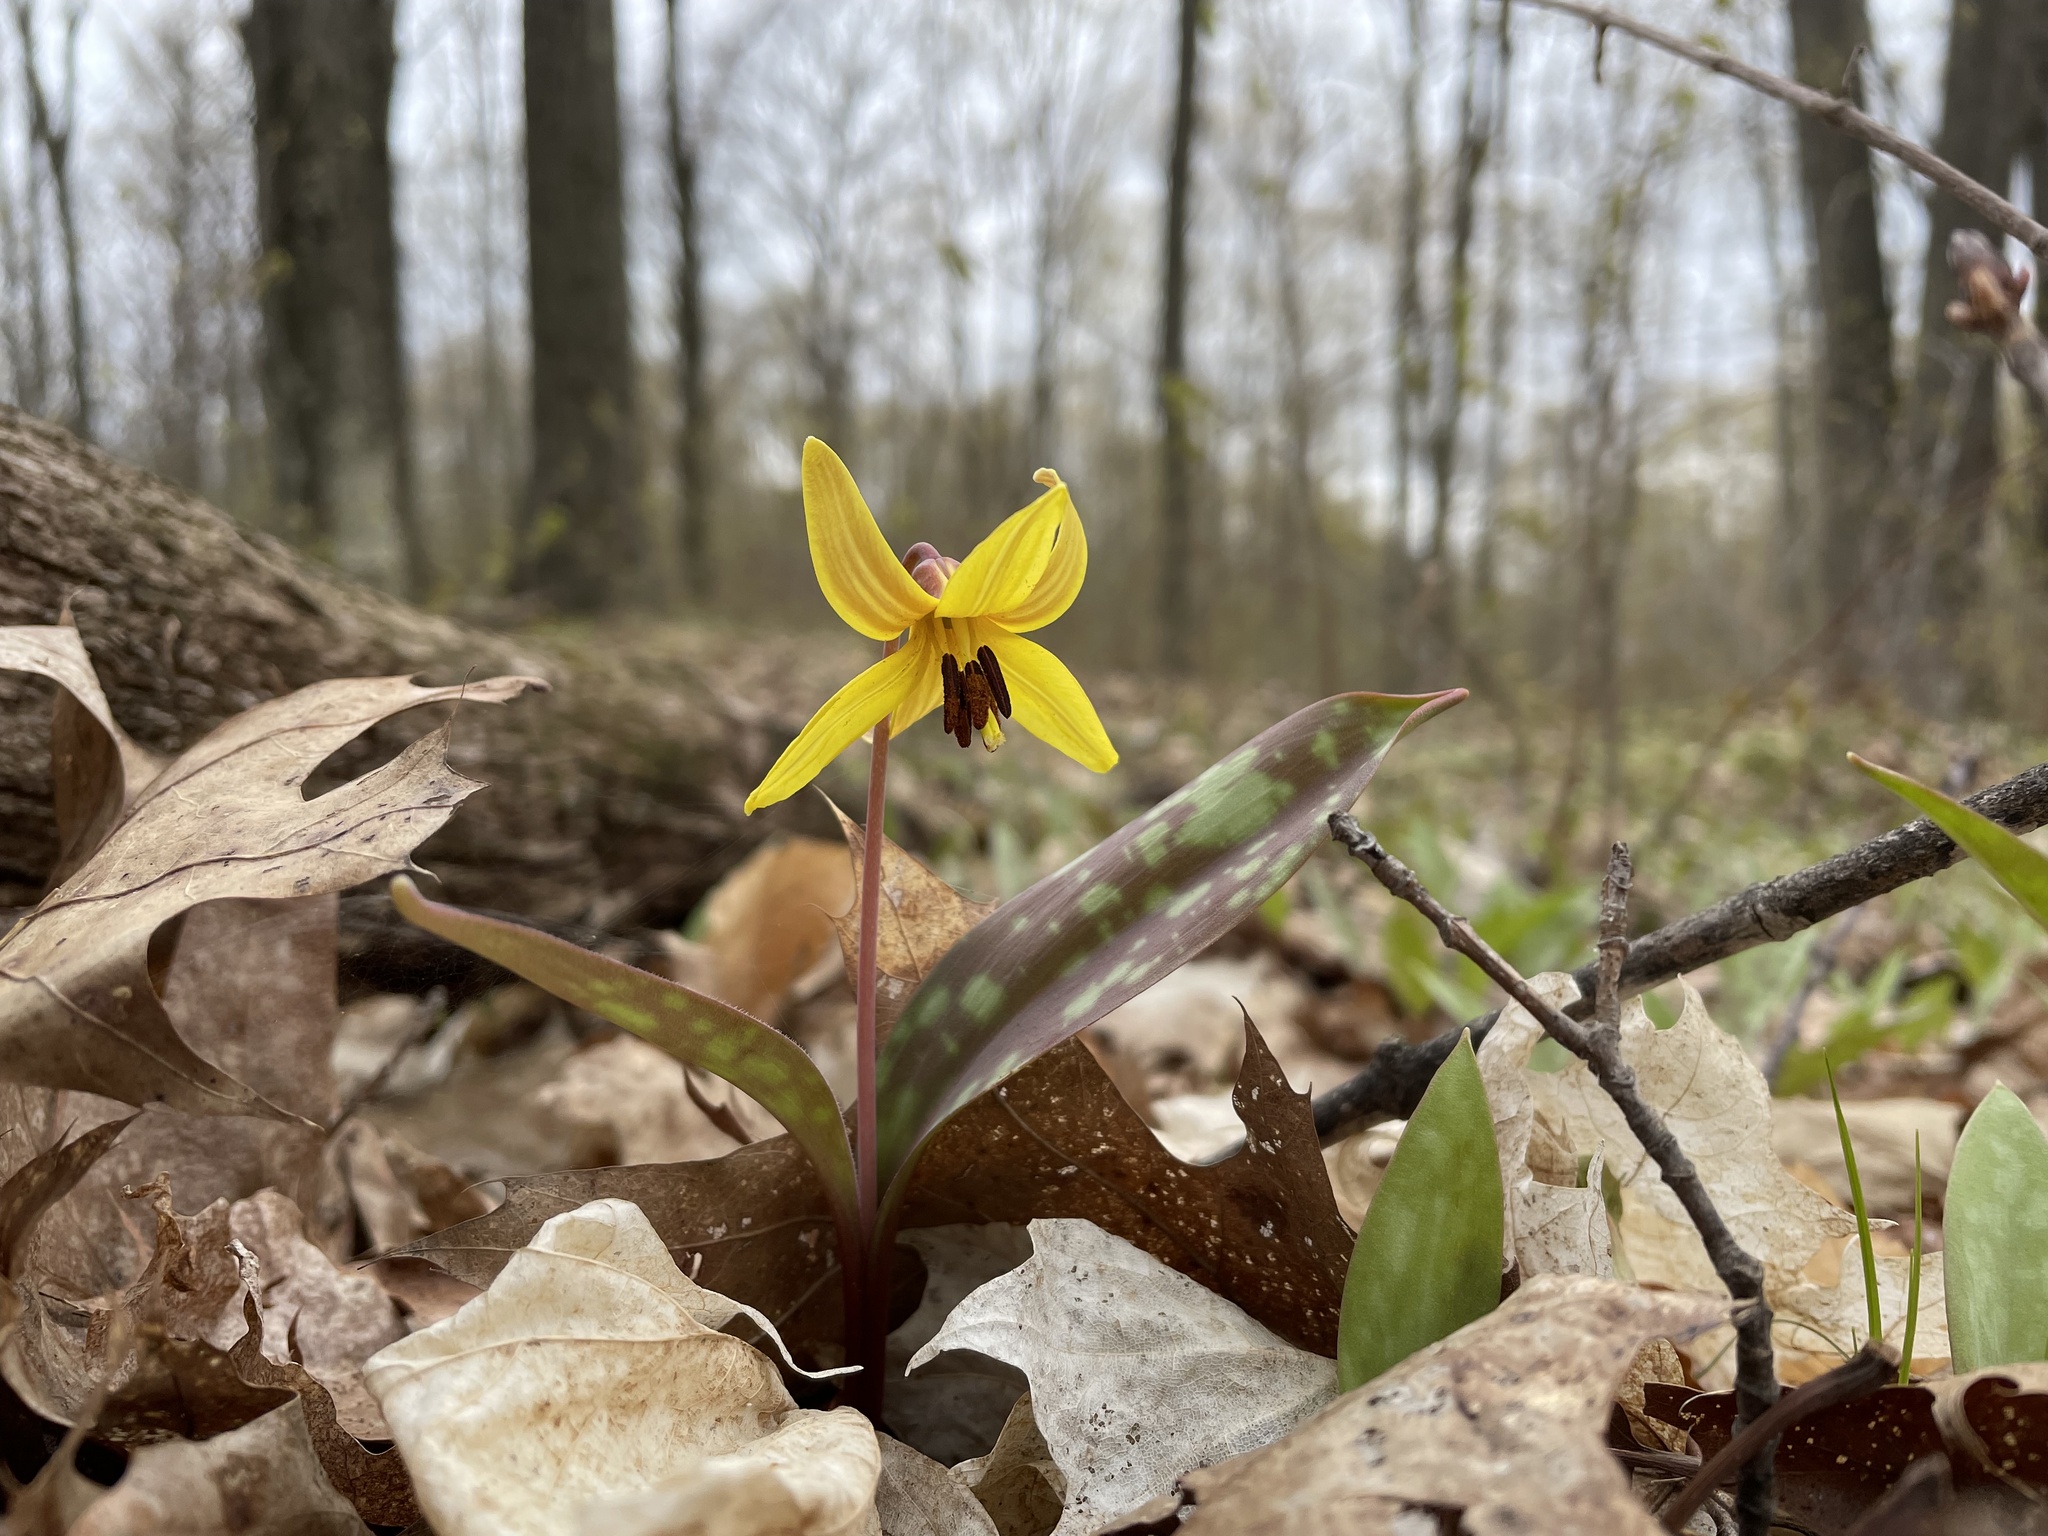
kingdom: Plantae
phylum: Tracheophyta
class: Liliopsida
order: Liliales
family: Liliaceae
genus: Erythronium
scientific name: Erythronium americanum
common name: Yellow adder's-tongue
